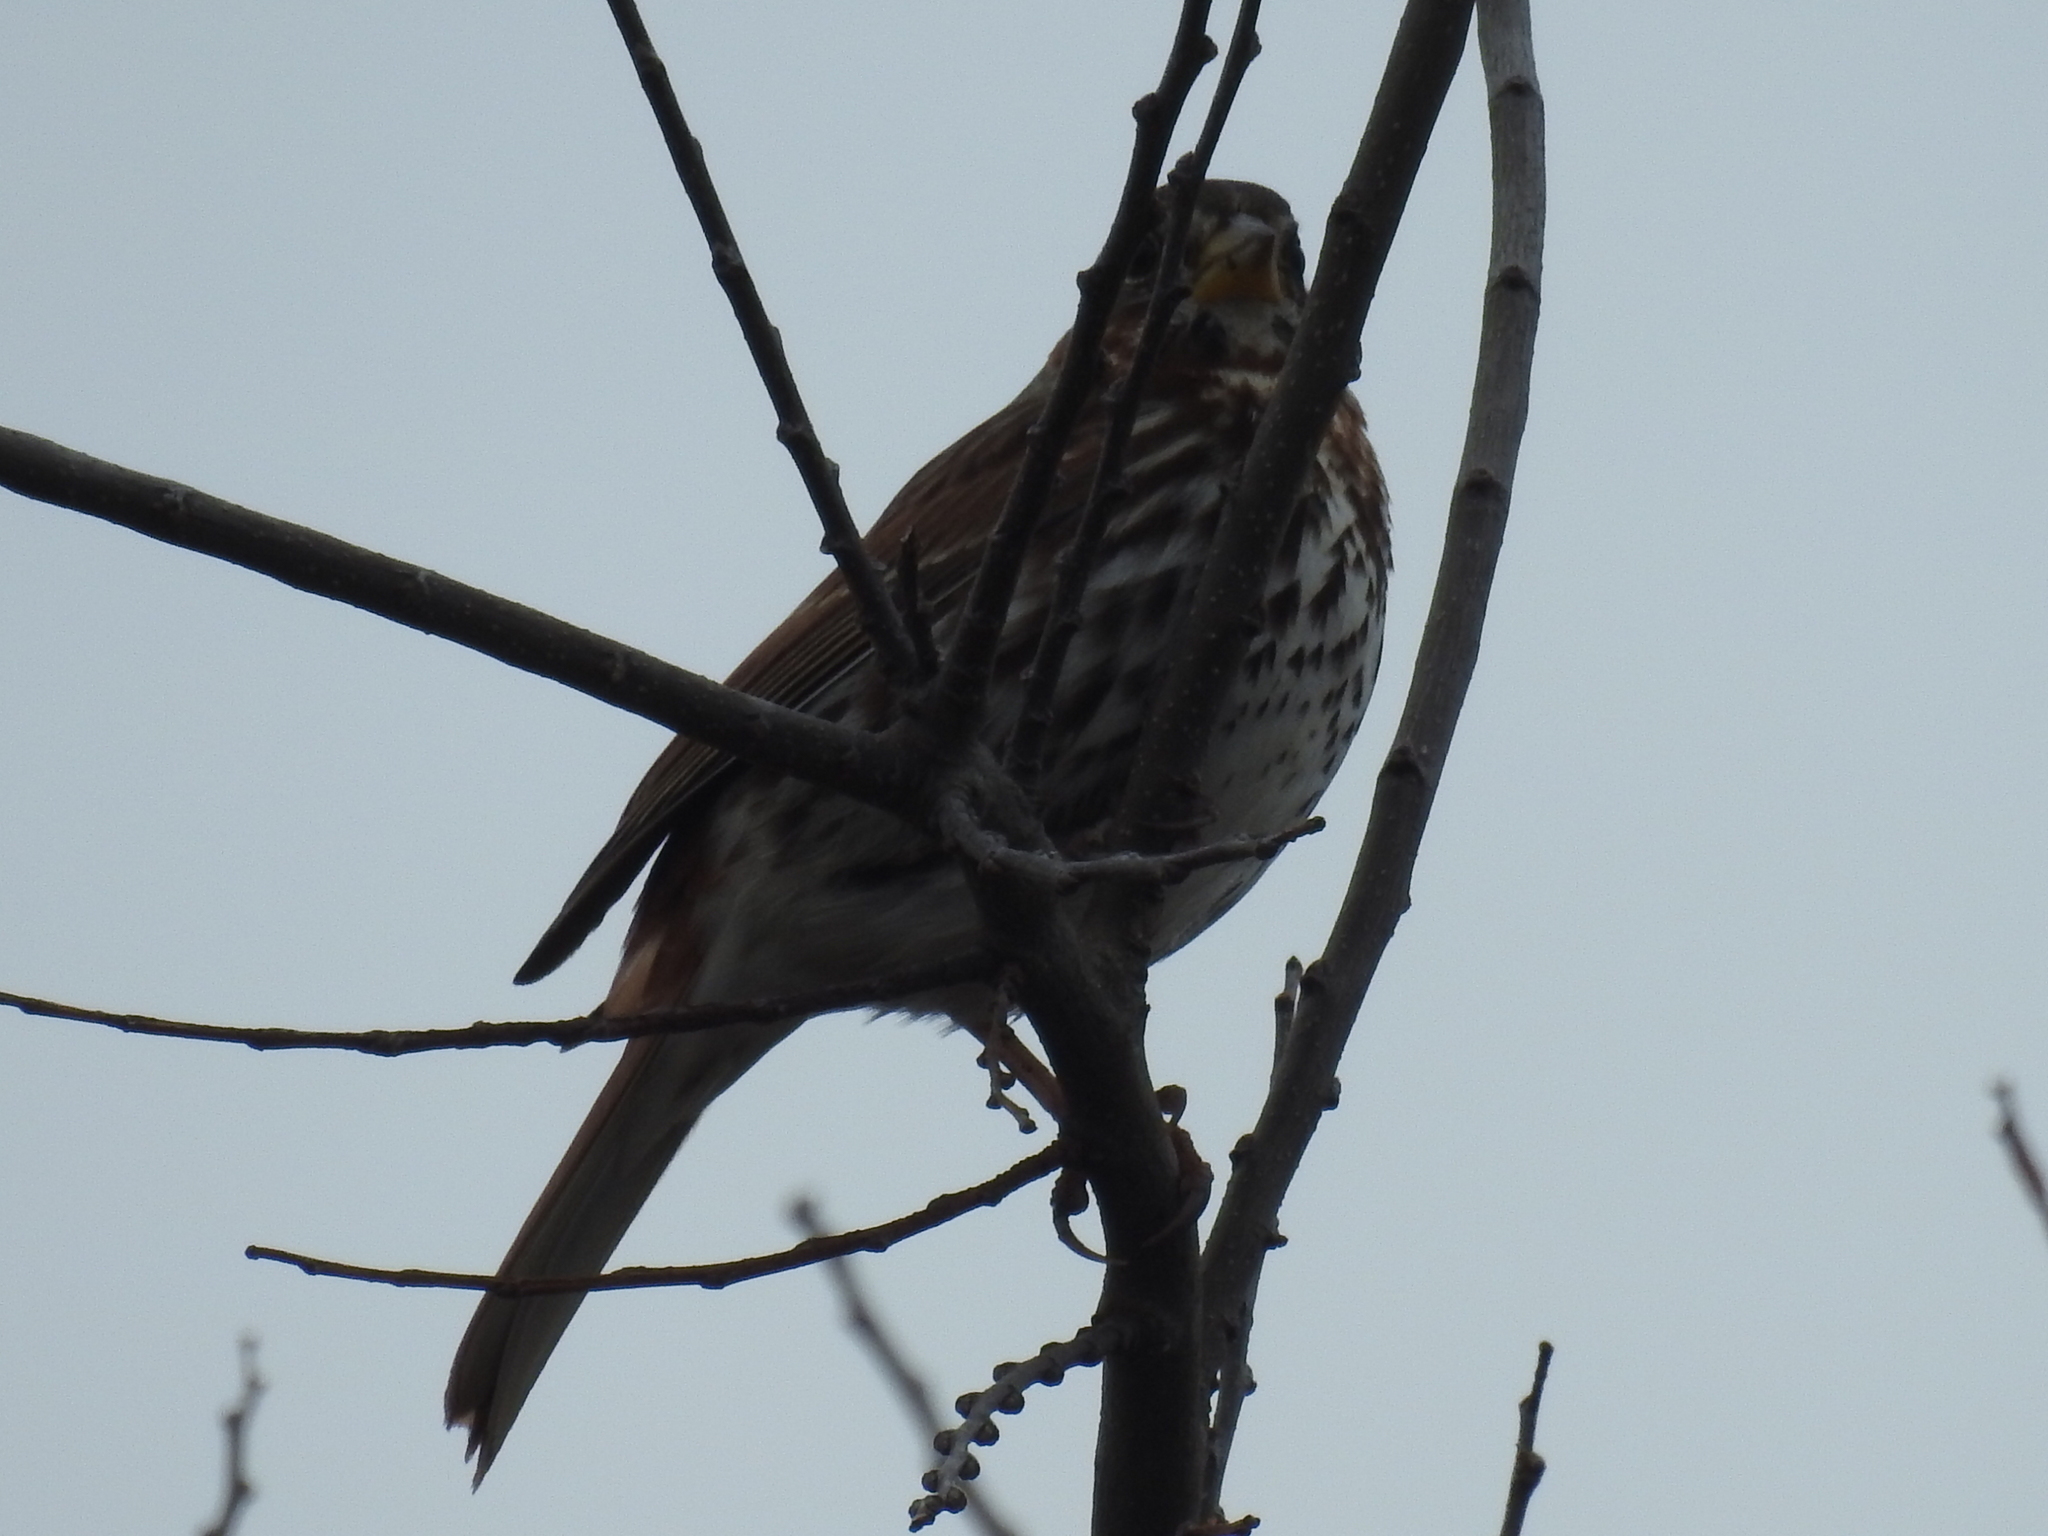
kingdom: Animalia
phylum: Chordata
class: Aves
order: Passeriformes
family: Passerellidae
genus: Passerella
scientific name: Passerella iliaca
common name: Fox sparrow
